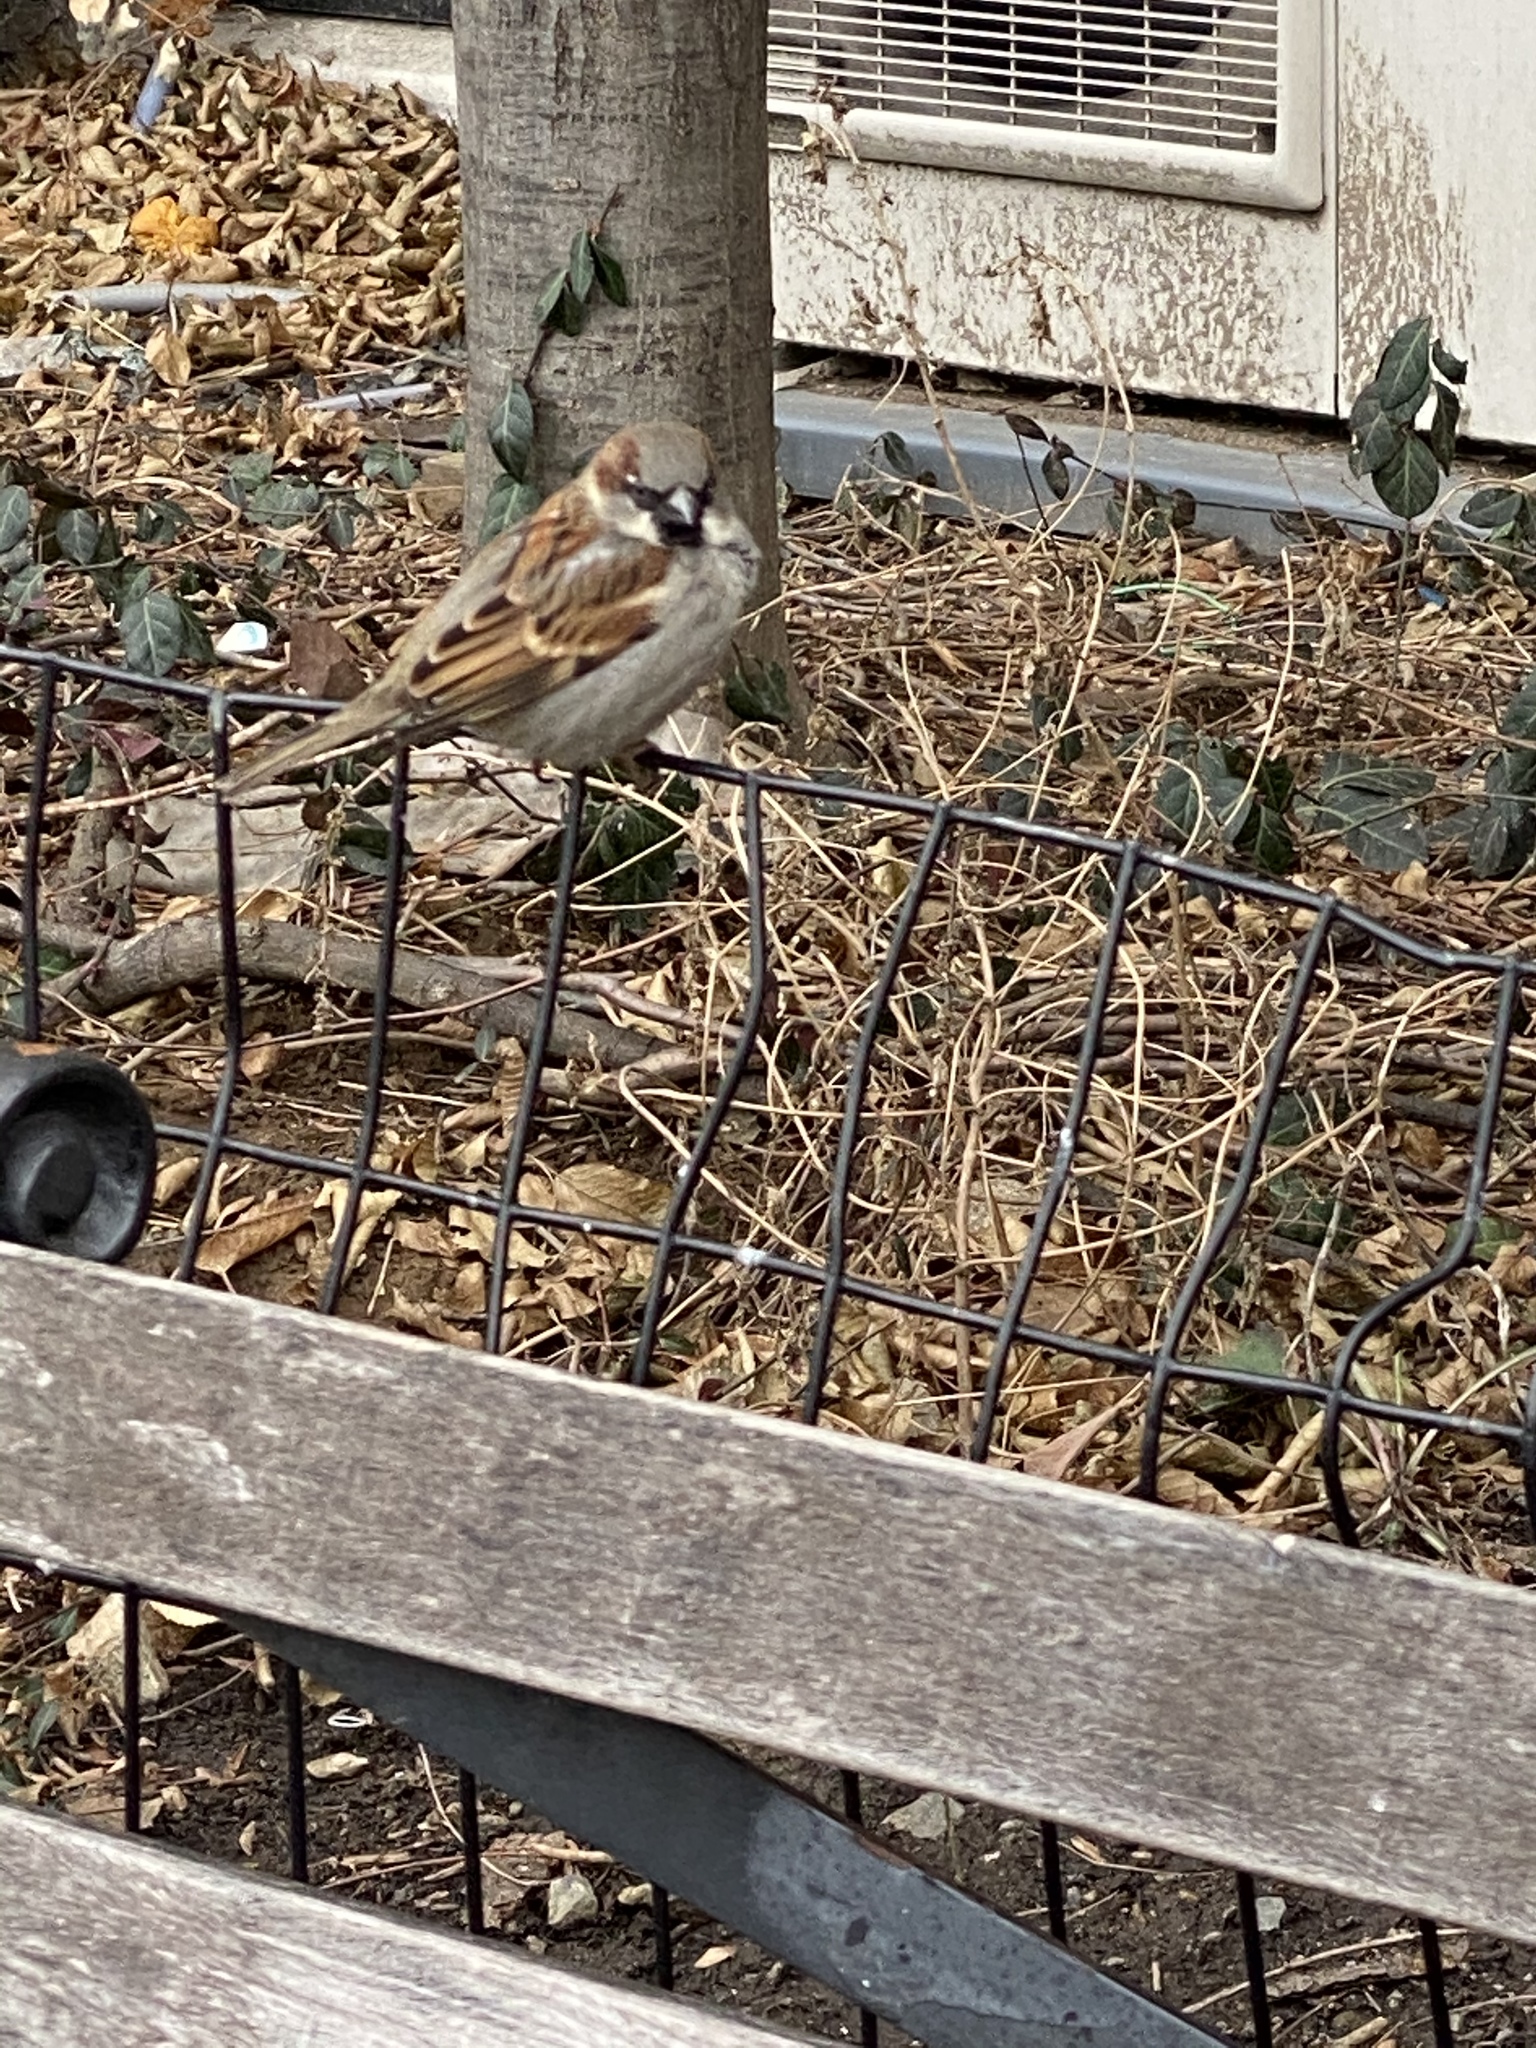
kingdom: Animalia
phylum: Chordata
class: Aves
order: Passeriformes
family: Passeridae
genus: Passer
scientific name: Passer domesticus
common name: House sparrow
